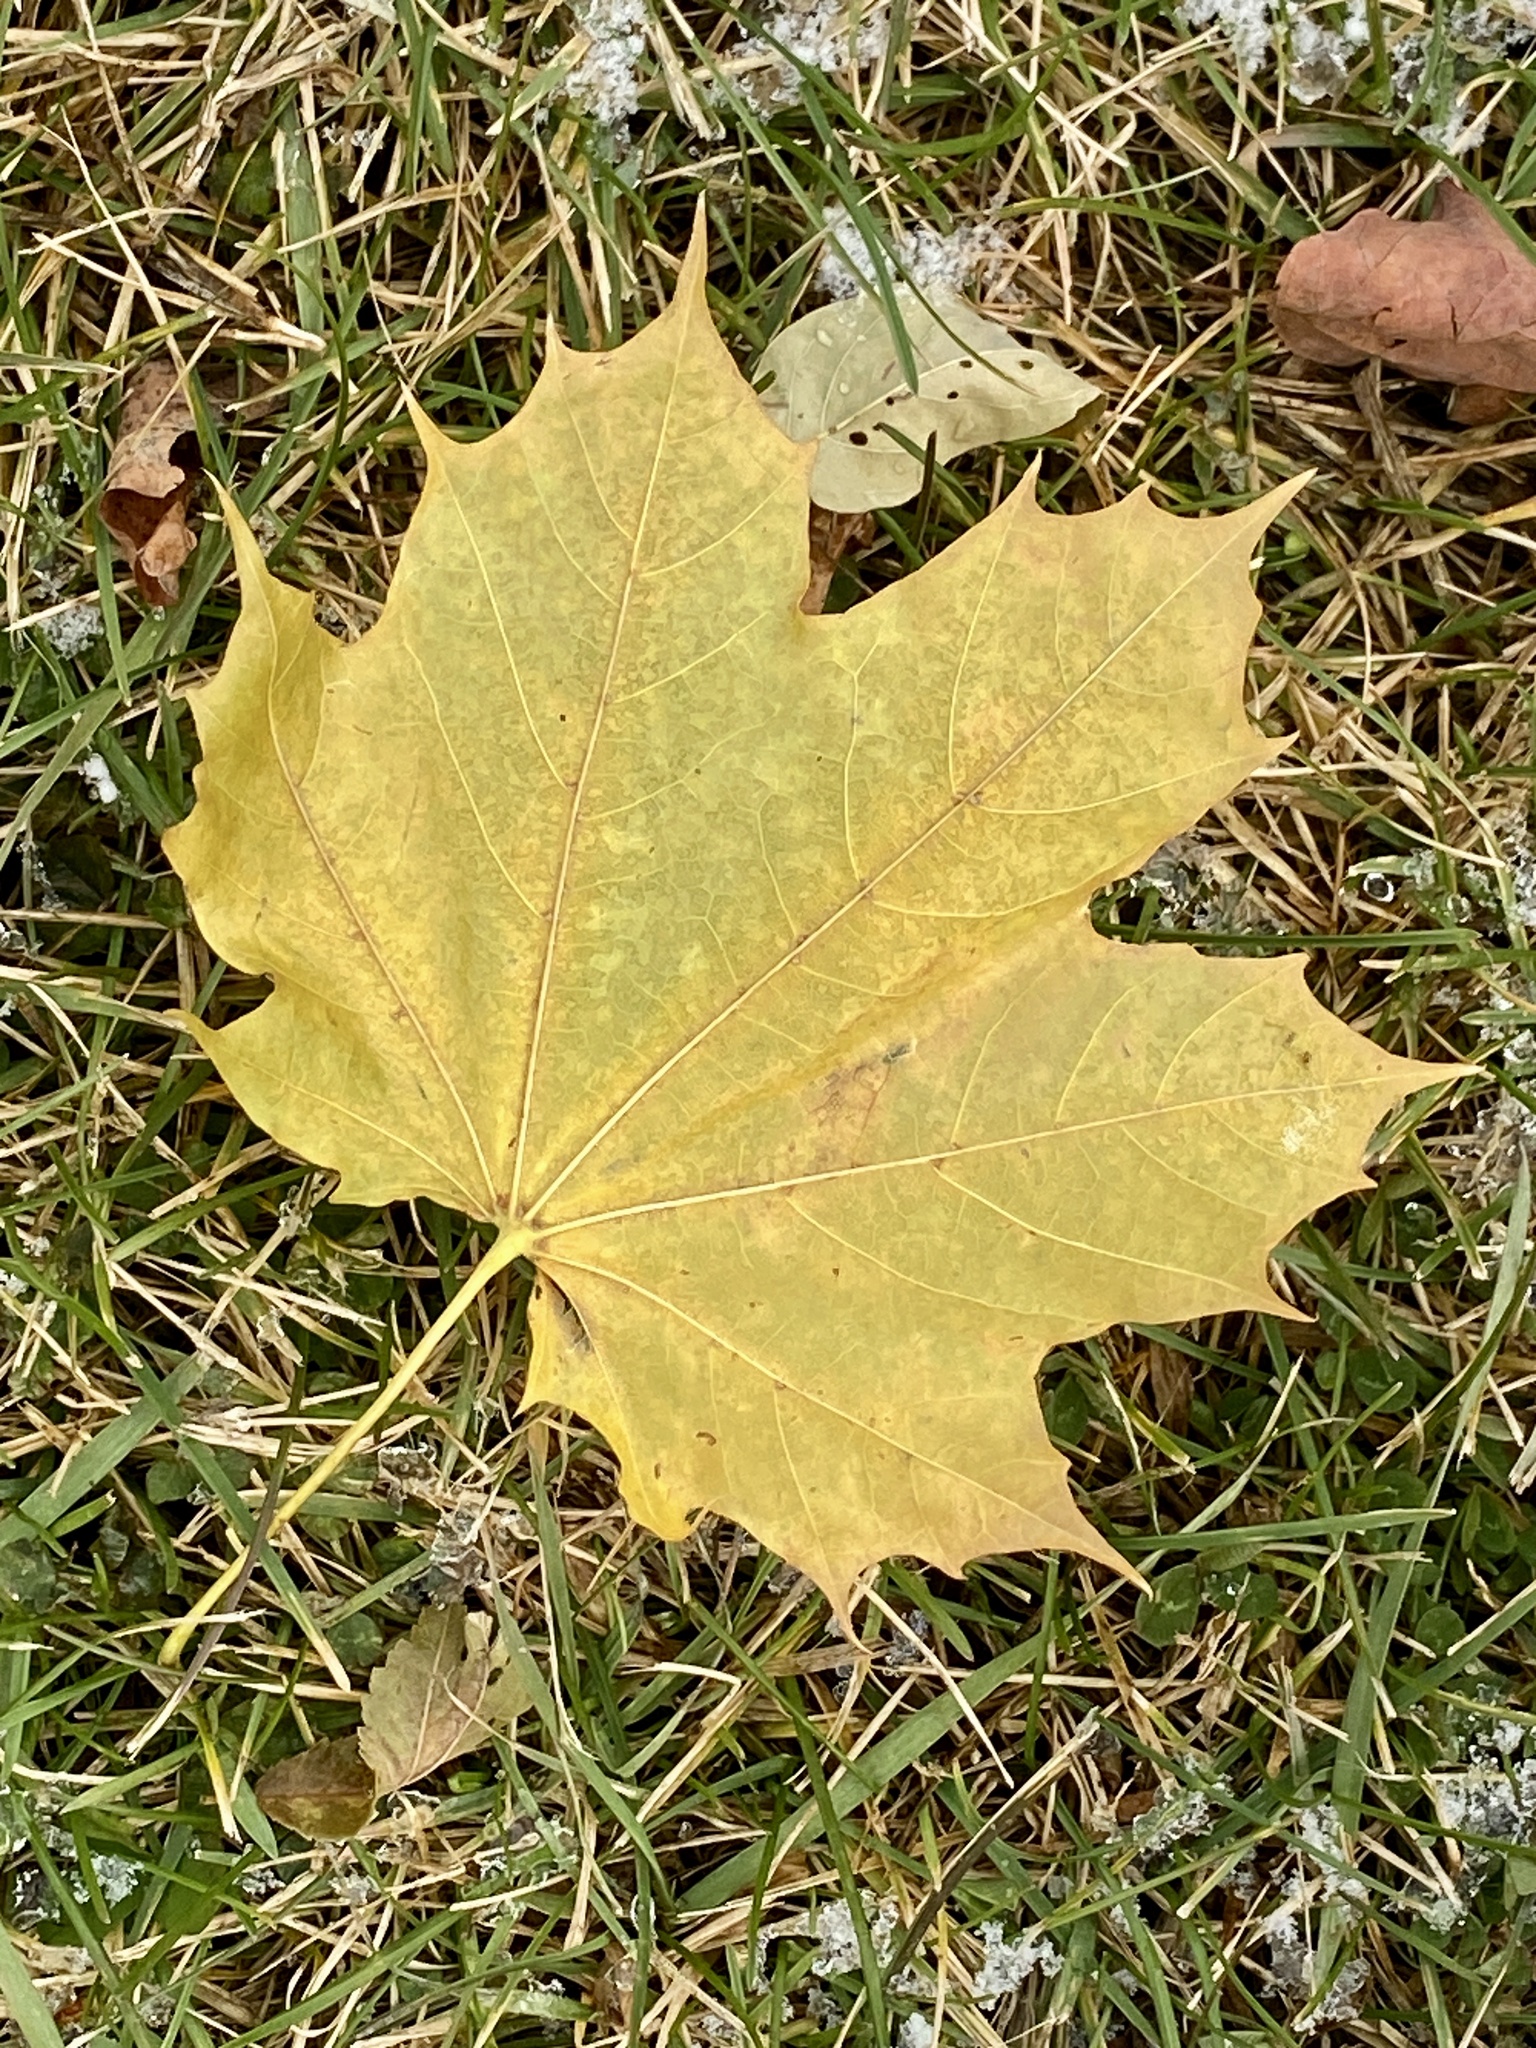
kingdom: Plantae
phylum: Tracheophyta
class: Magnoliopsida
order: Sapindales
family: Sapindaceae
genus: Acer
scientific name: Acer platanoides
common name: Norway maple
